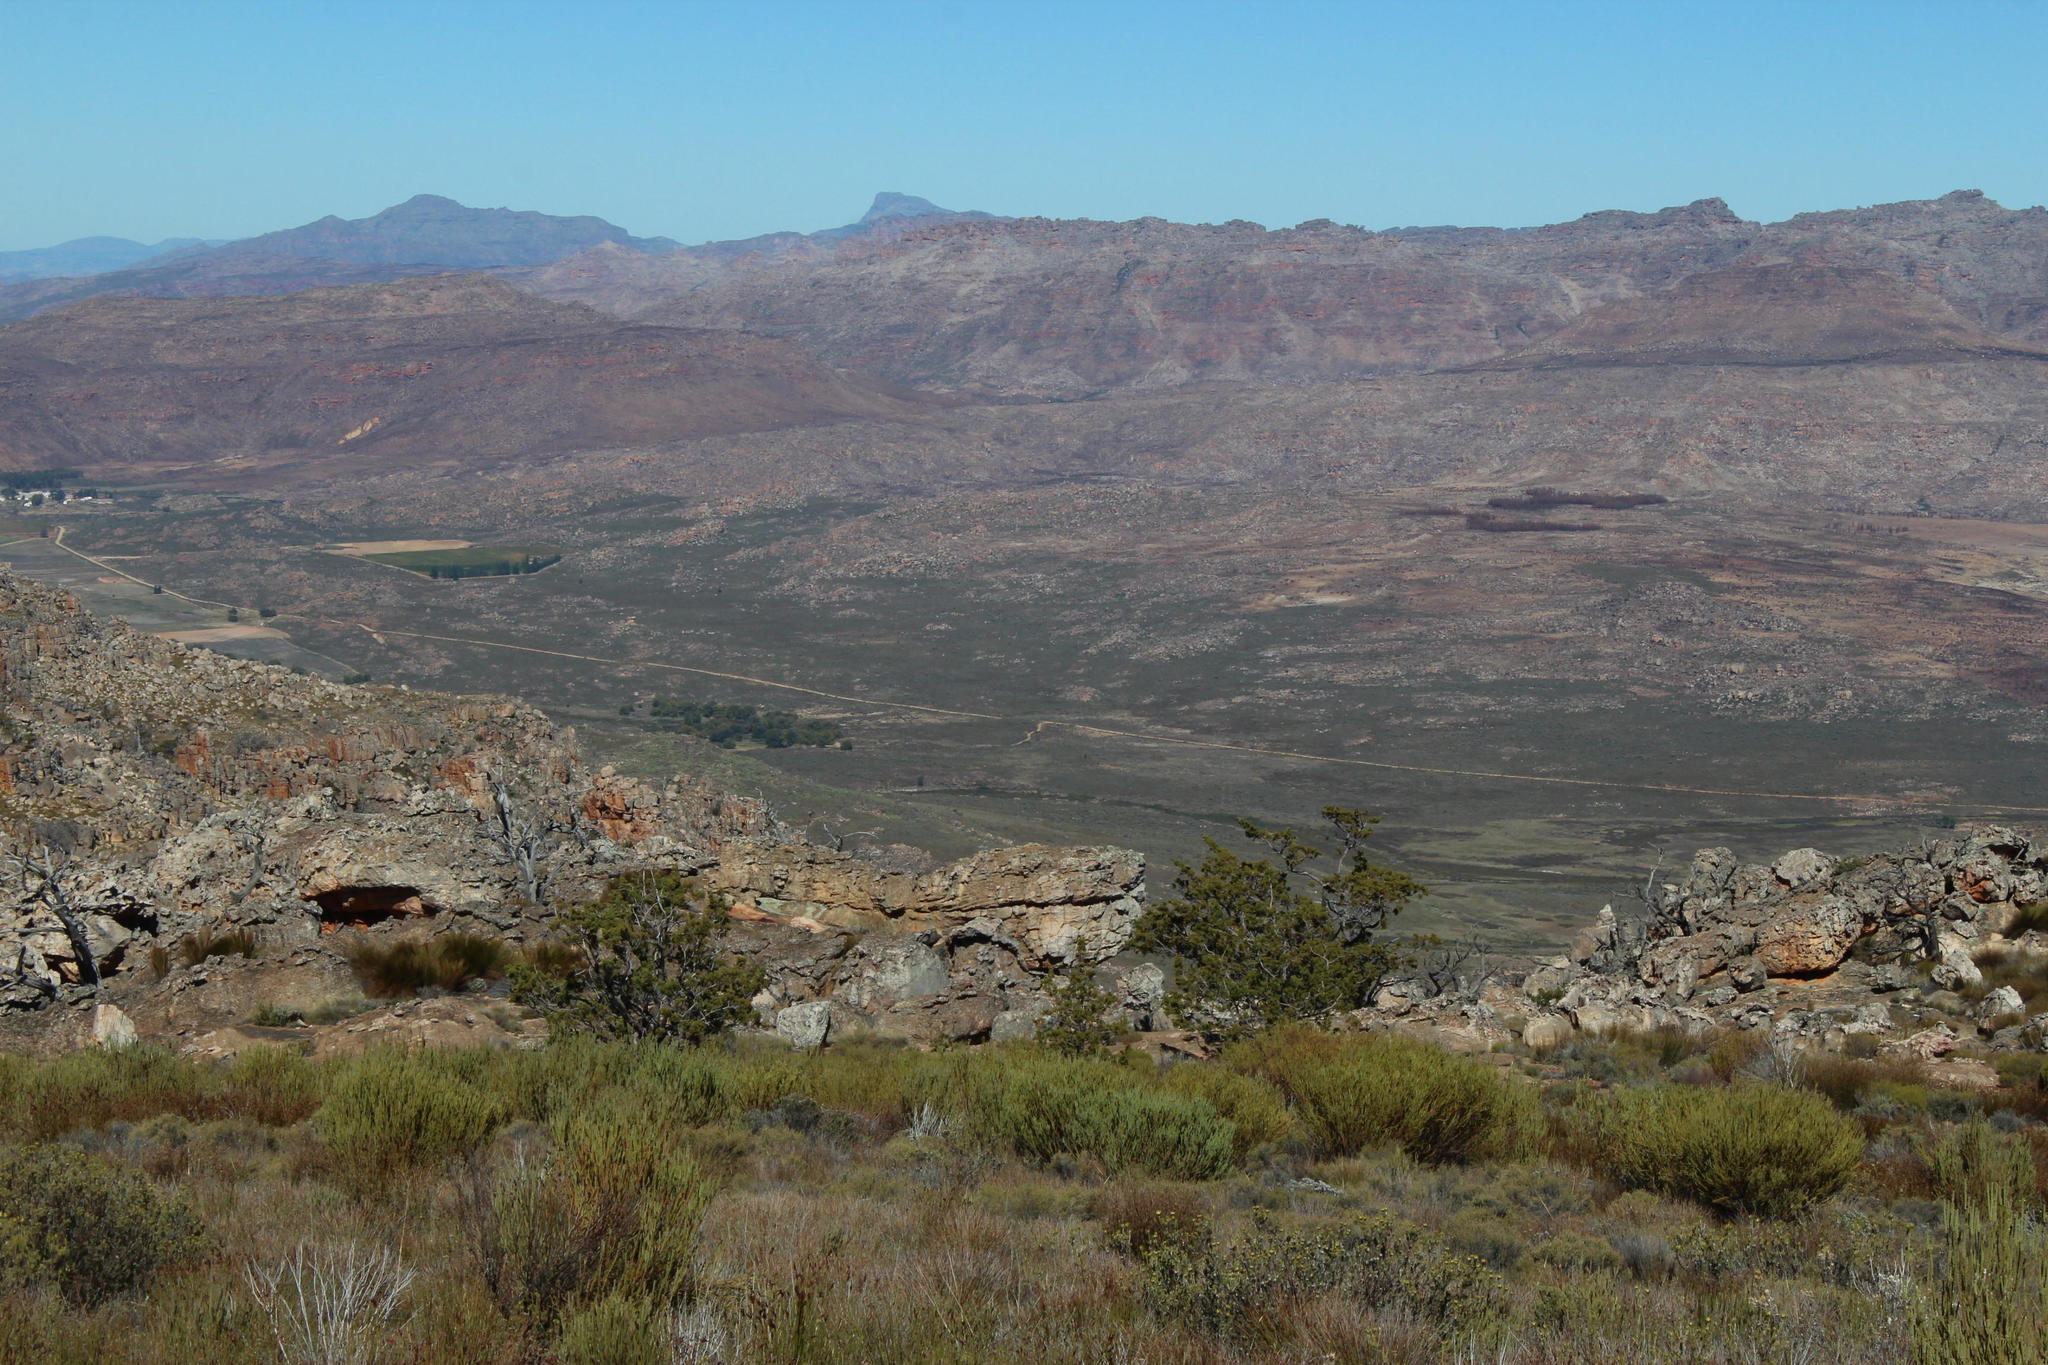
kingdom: Plantae
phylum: Tracheophyta
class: Pinopsida
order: Pinales
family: Cupressaceae
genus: Widdringtonia
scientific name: Widdringtonia nodiflora
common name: Cape cypress
